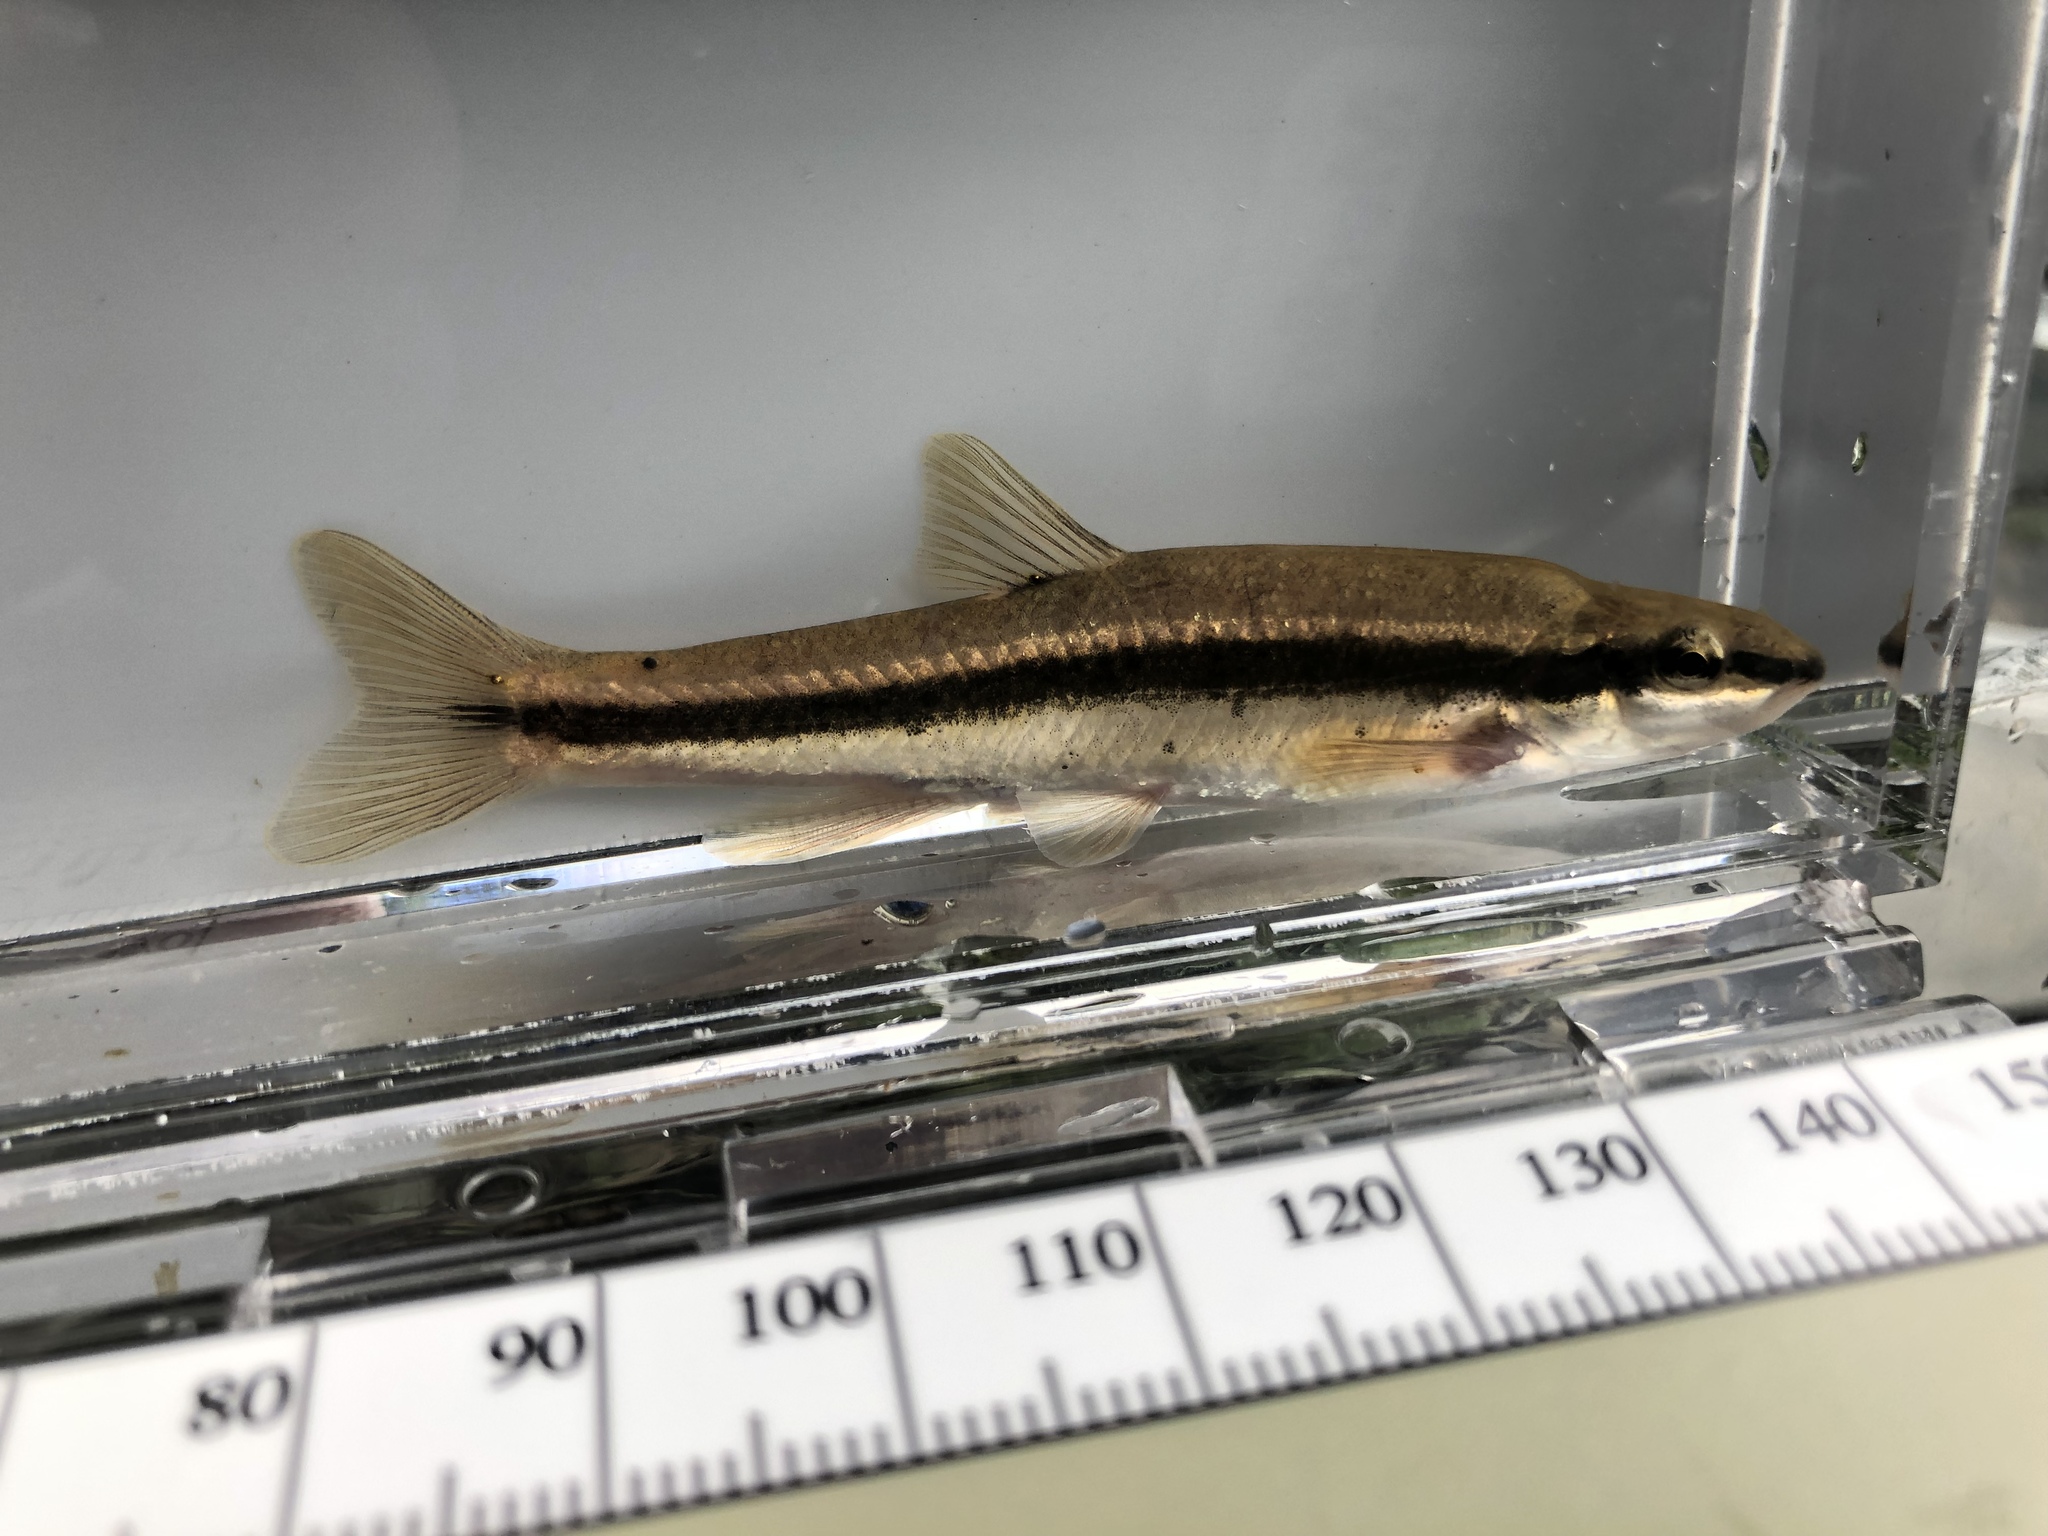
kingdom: Animalia
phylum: Chordata
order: Cypriniformes
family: Cyprinidae
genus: Rhinichthys
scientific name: Rhinichthys atratulus
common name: Eastern blacknose dace
